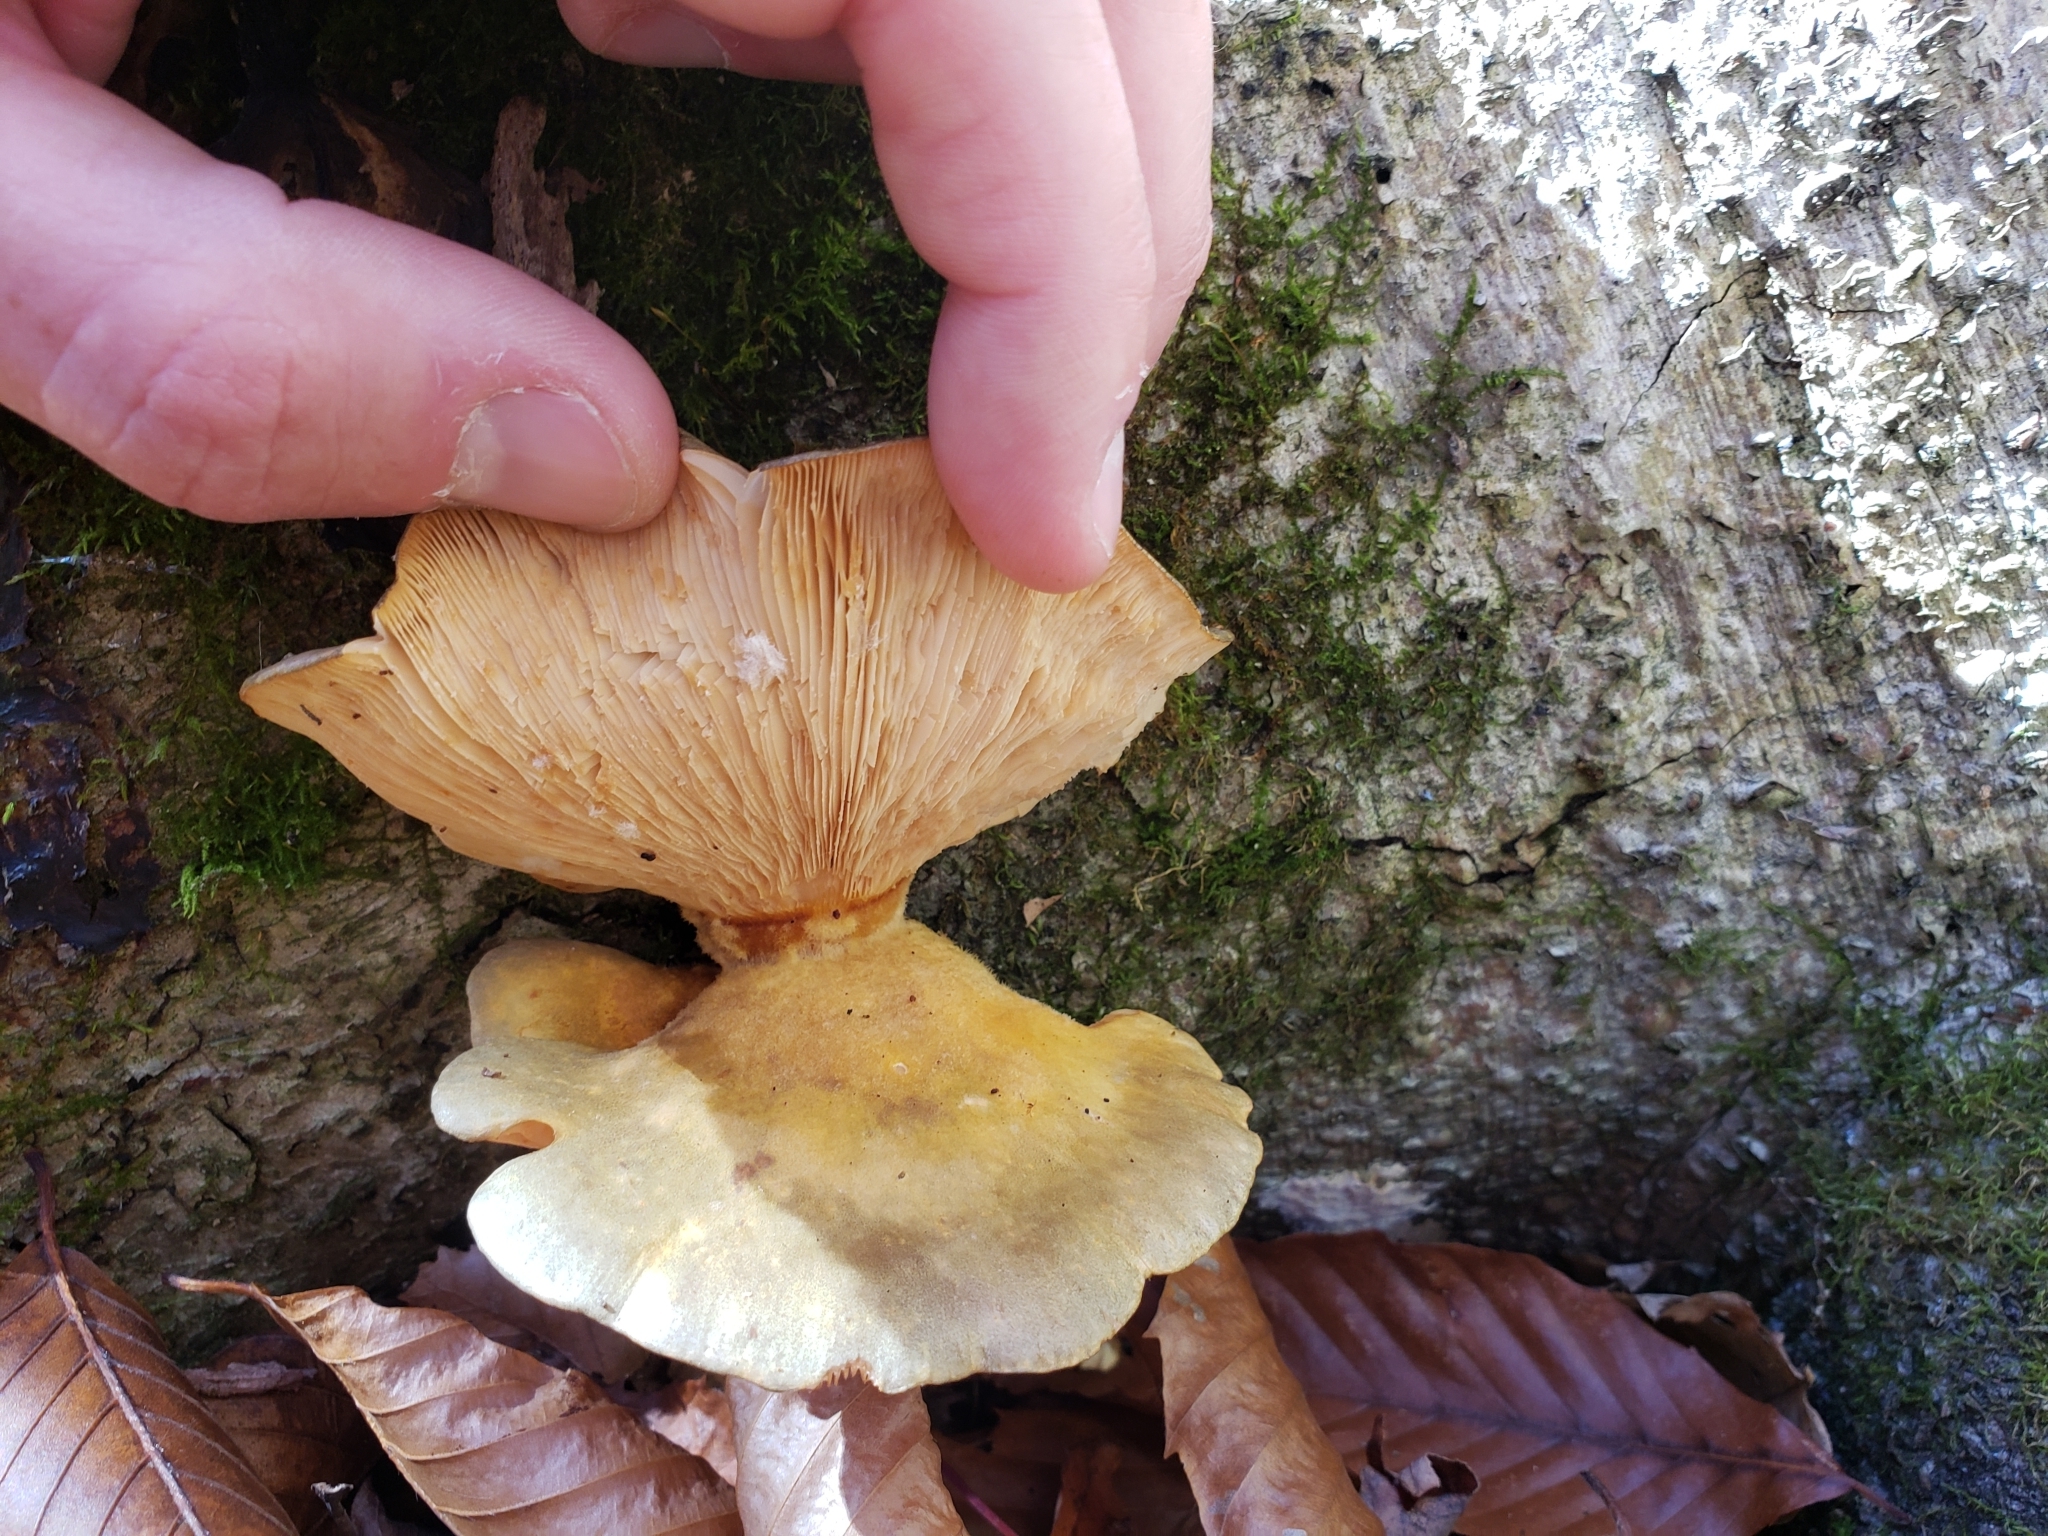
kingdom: Fungi
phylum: Basidiomycota
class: Agaricomycetes
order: Agaricales
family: Sarcomyxaceae
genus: Sarcomyxa
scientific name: Sarcomyxa serotina
